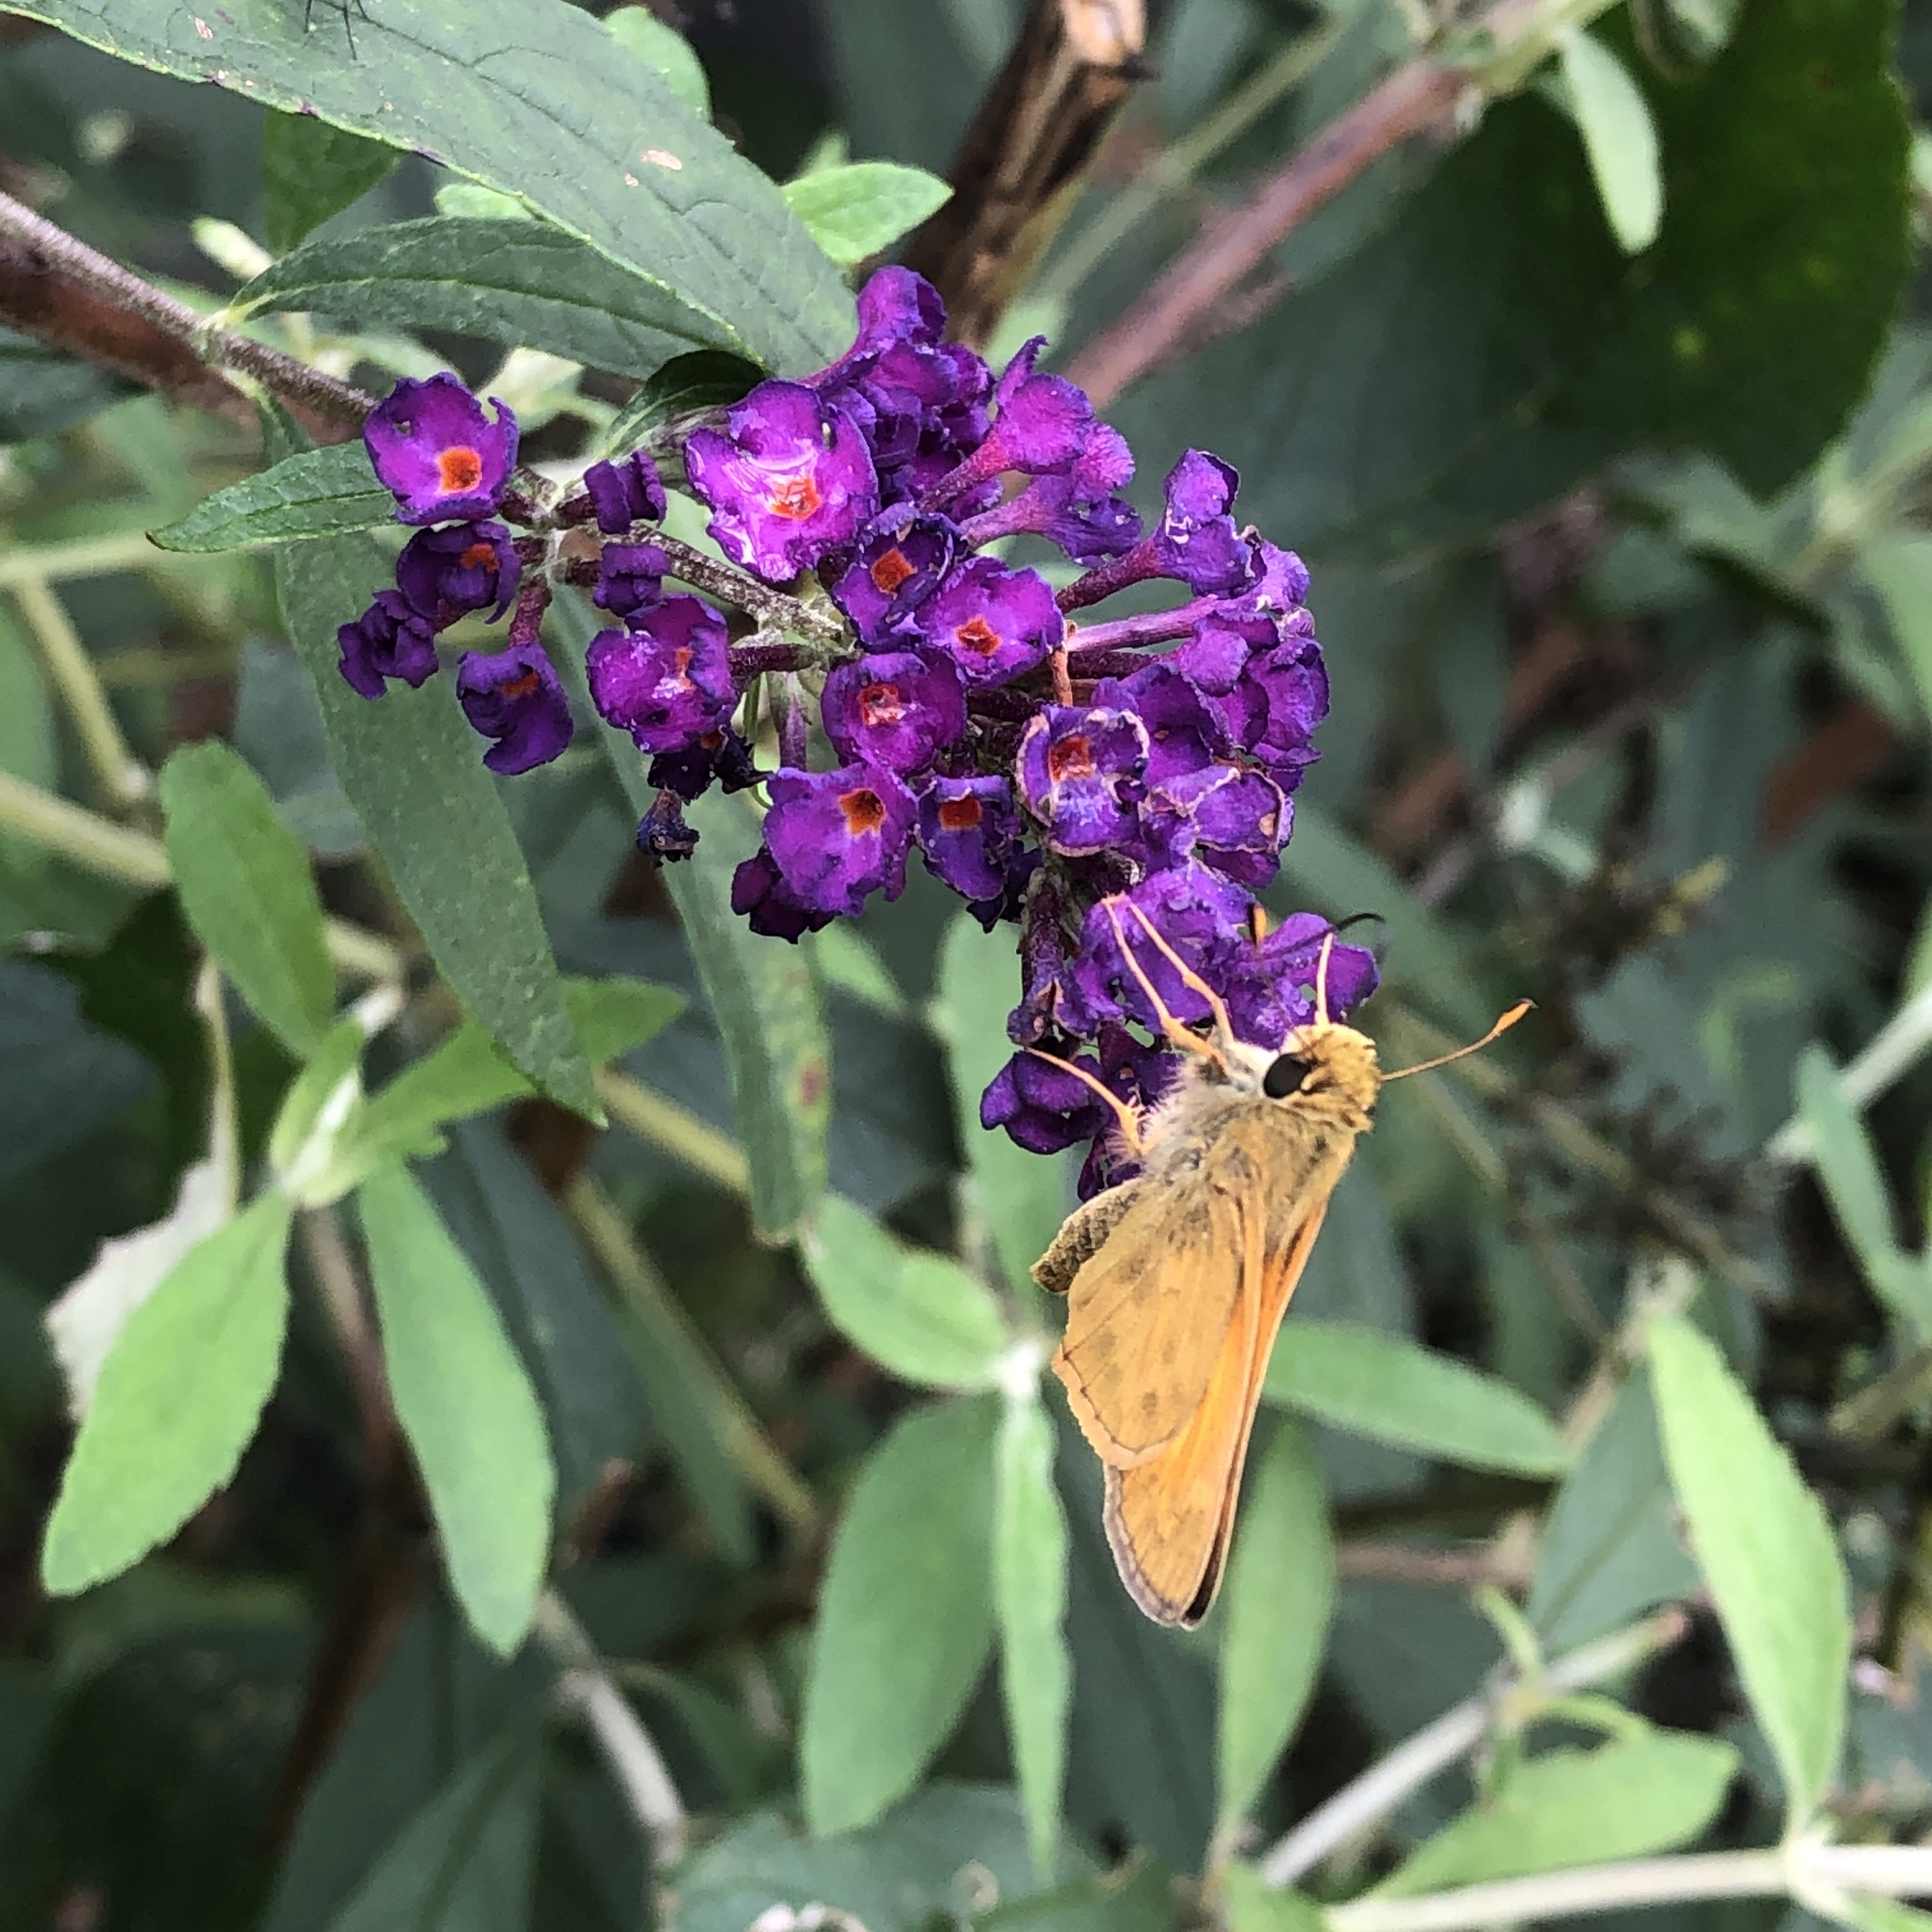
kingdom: Animalia
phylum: Arthropoda
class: Insecta
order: Lepidoptera
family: Hesperiidae
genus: Atalopedes
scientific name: Atalopedes
